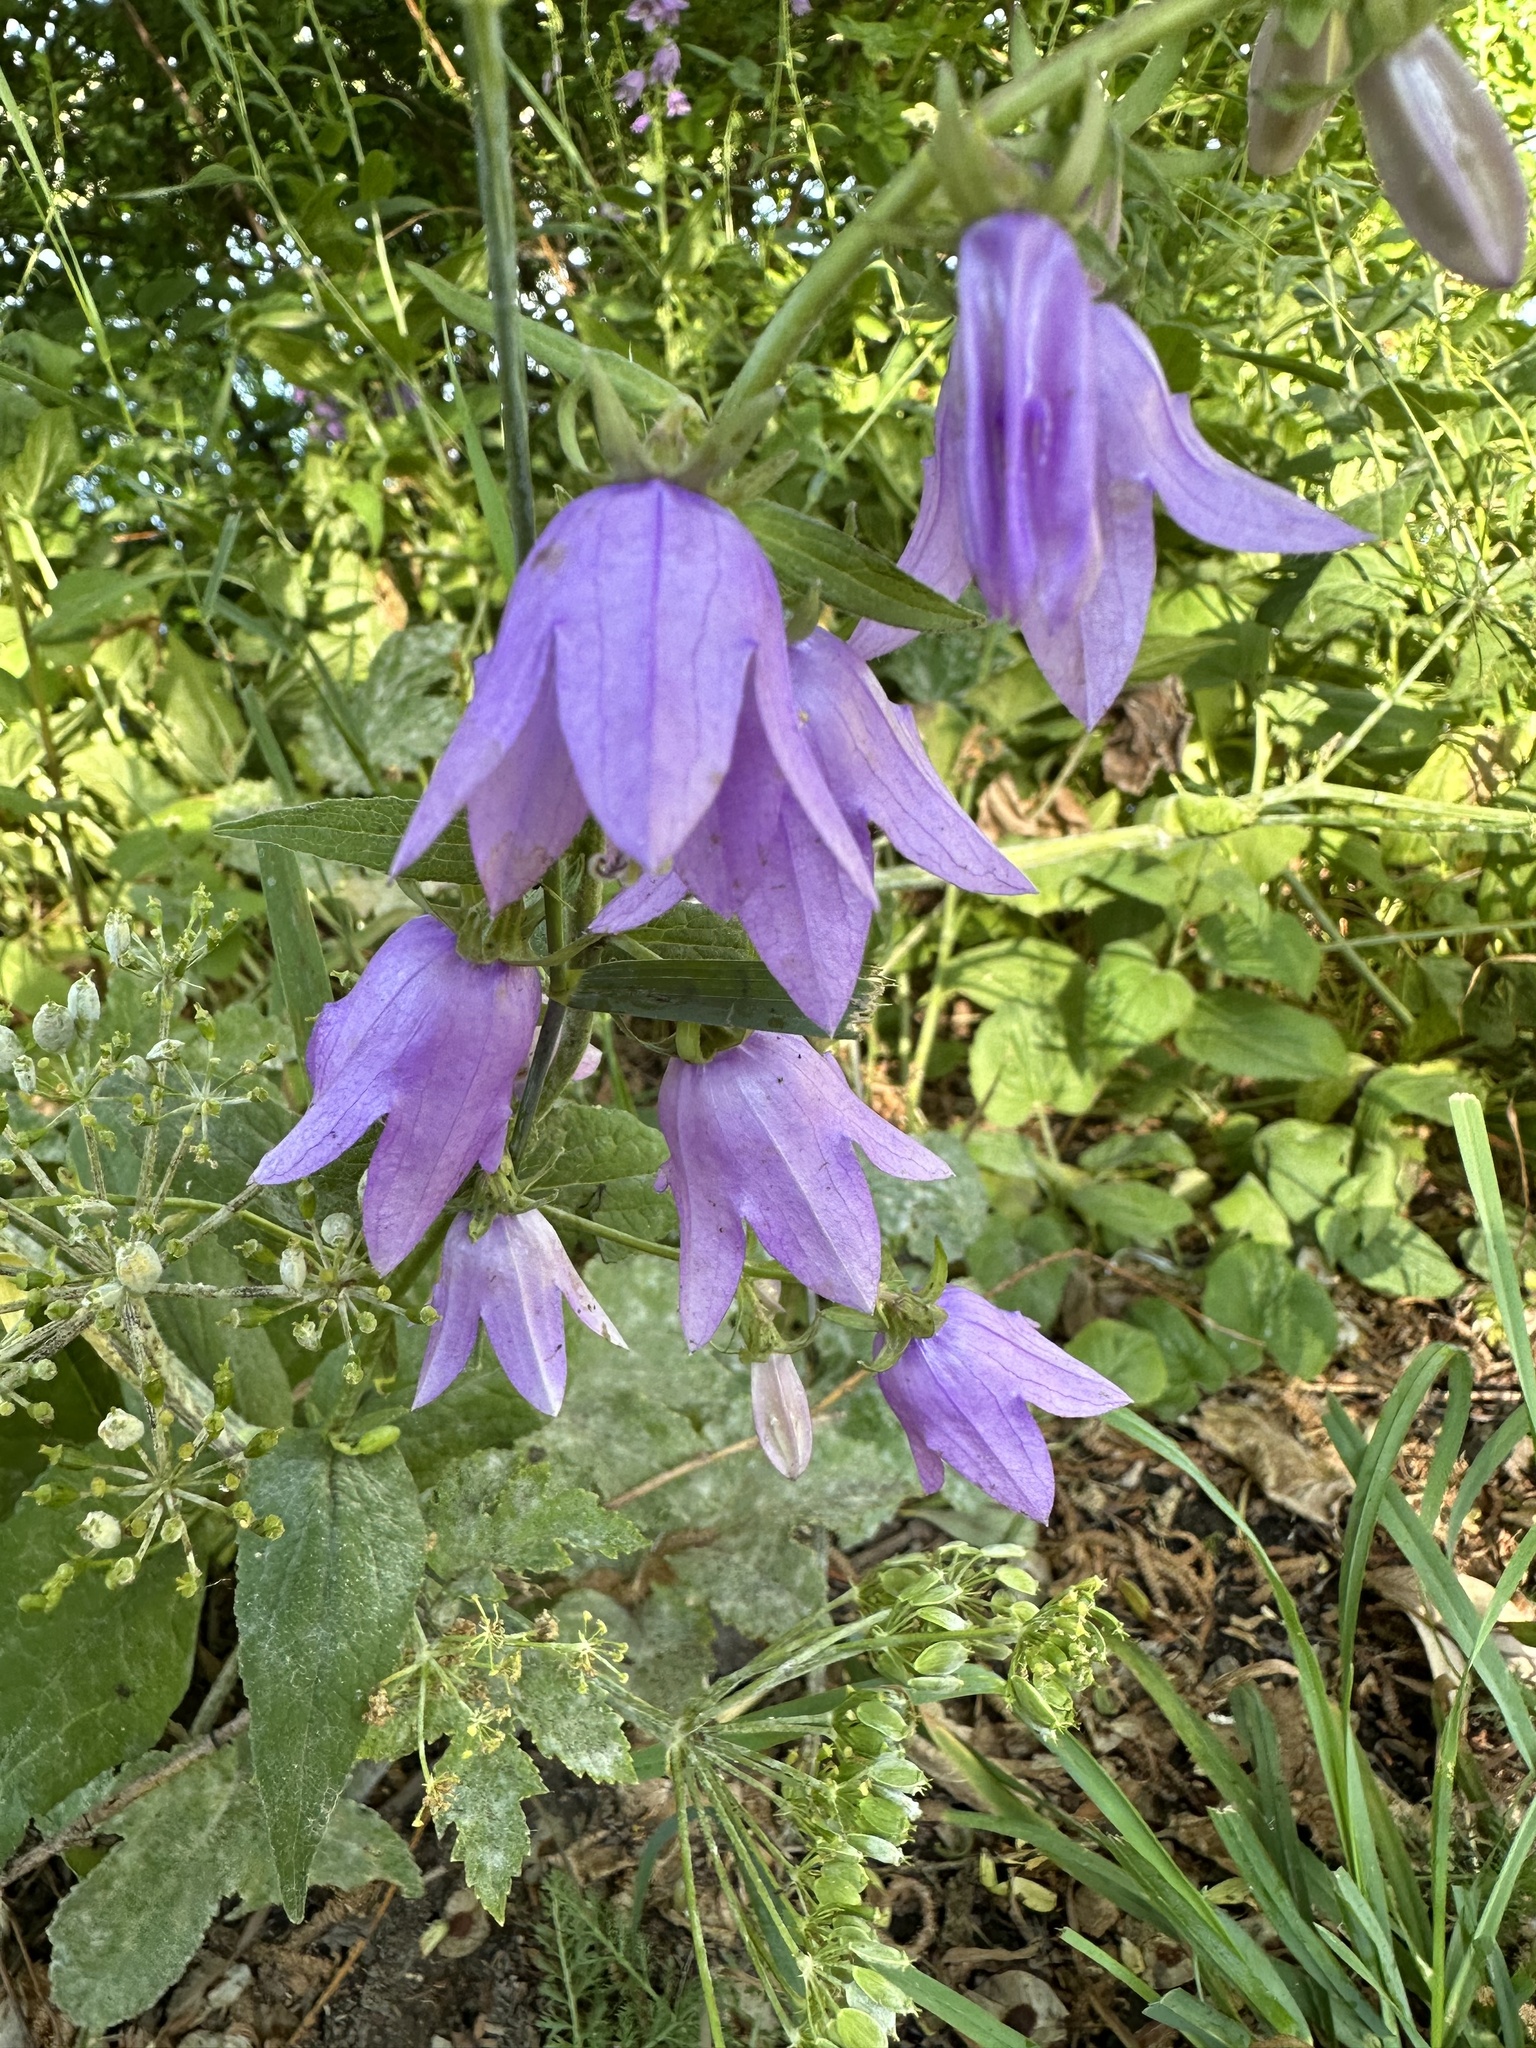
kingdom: Plantae
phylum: Tracheophyta
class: Magnoliopsida
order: Asterales
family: Campanulaceae
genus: Campanula
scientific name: Campanula rapunculoides
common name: Creeping bellflower
